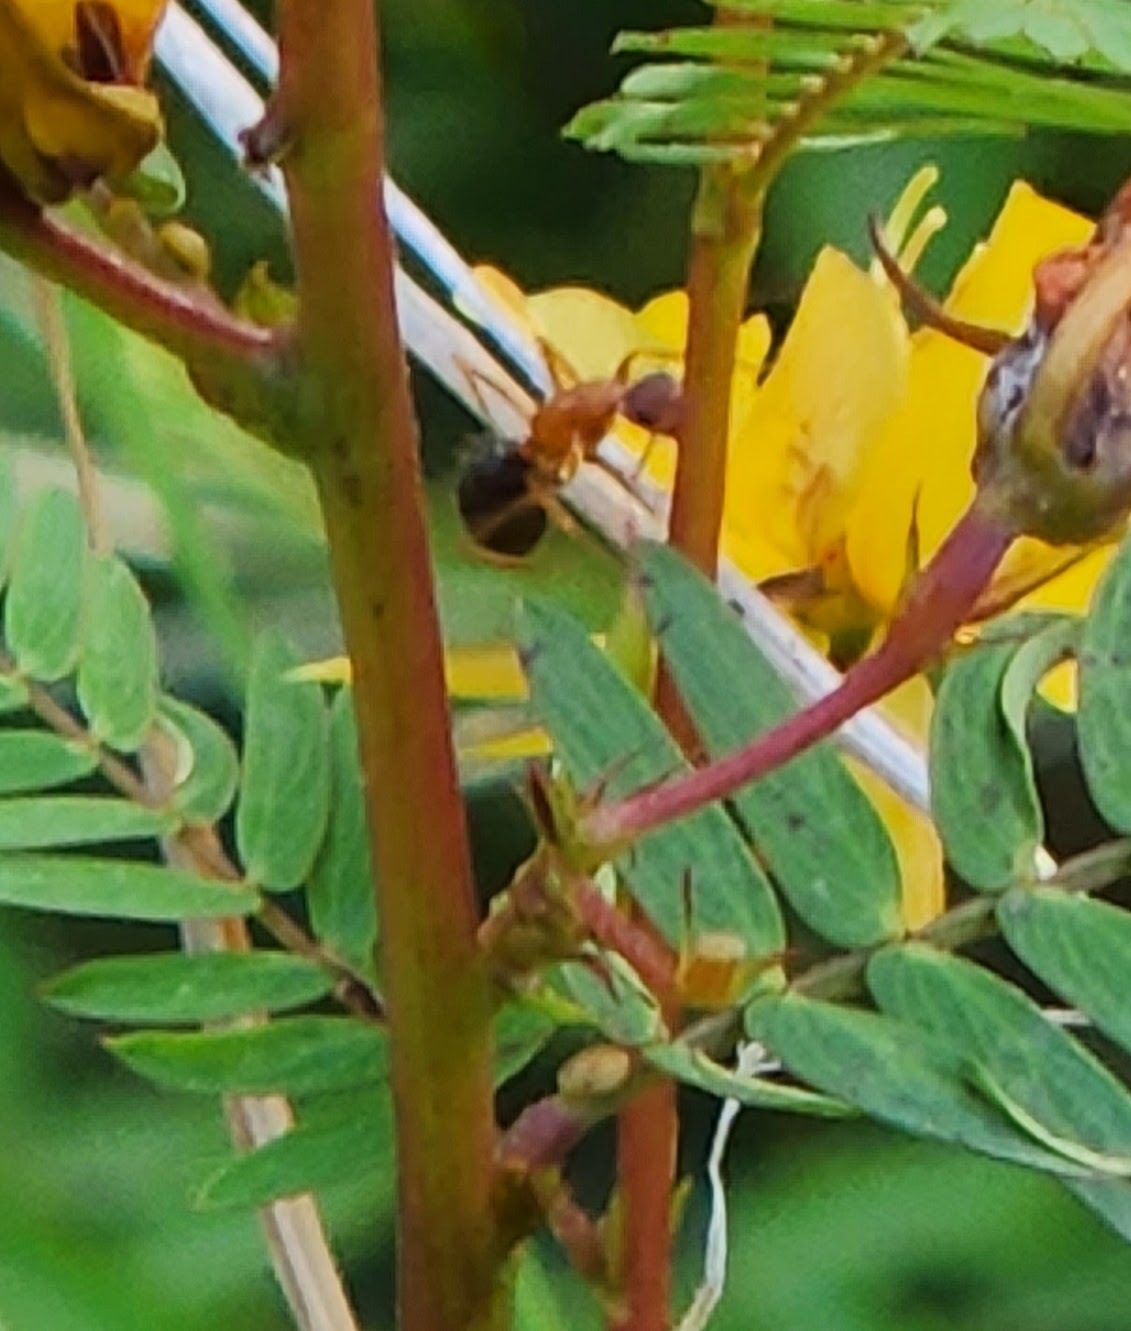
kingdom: Animalia
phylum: Arthropoda
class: Insecta
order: Hymenoptera
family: Formicidae
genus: Camponotus
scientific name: Camponotus floridanus
